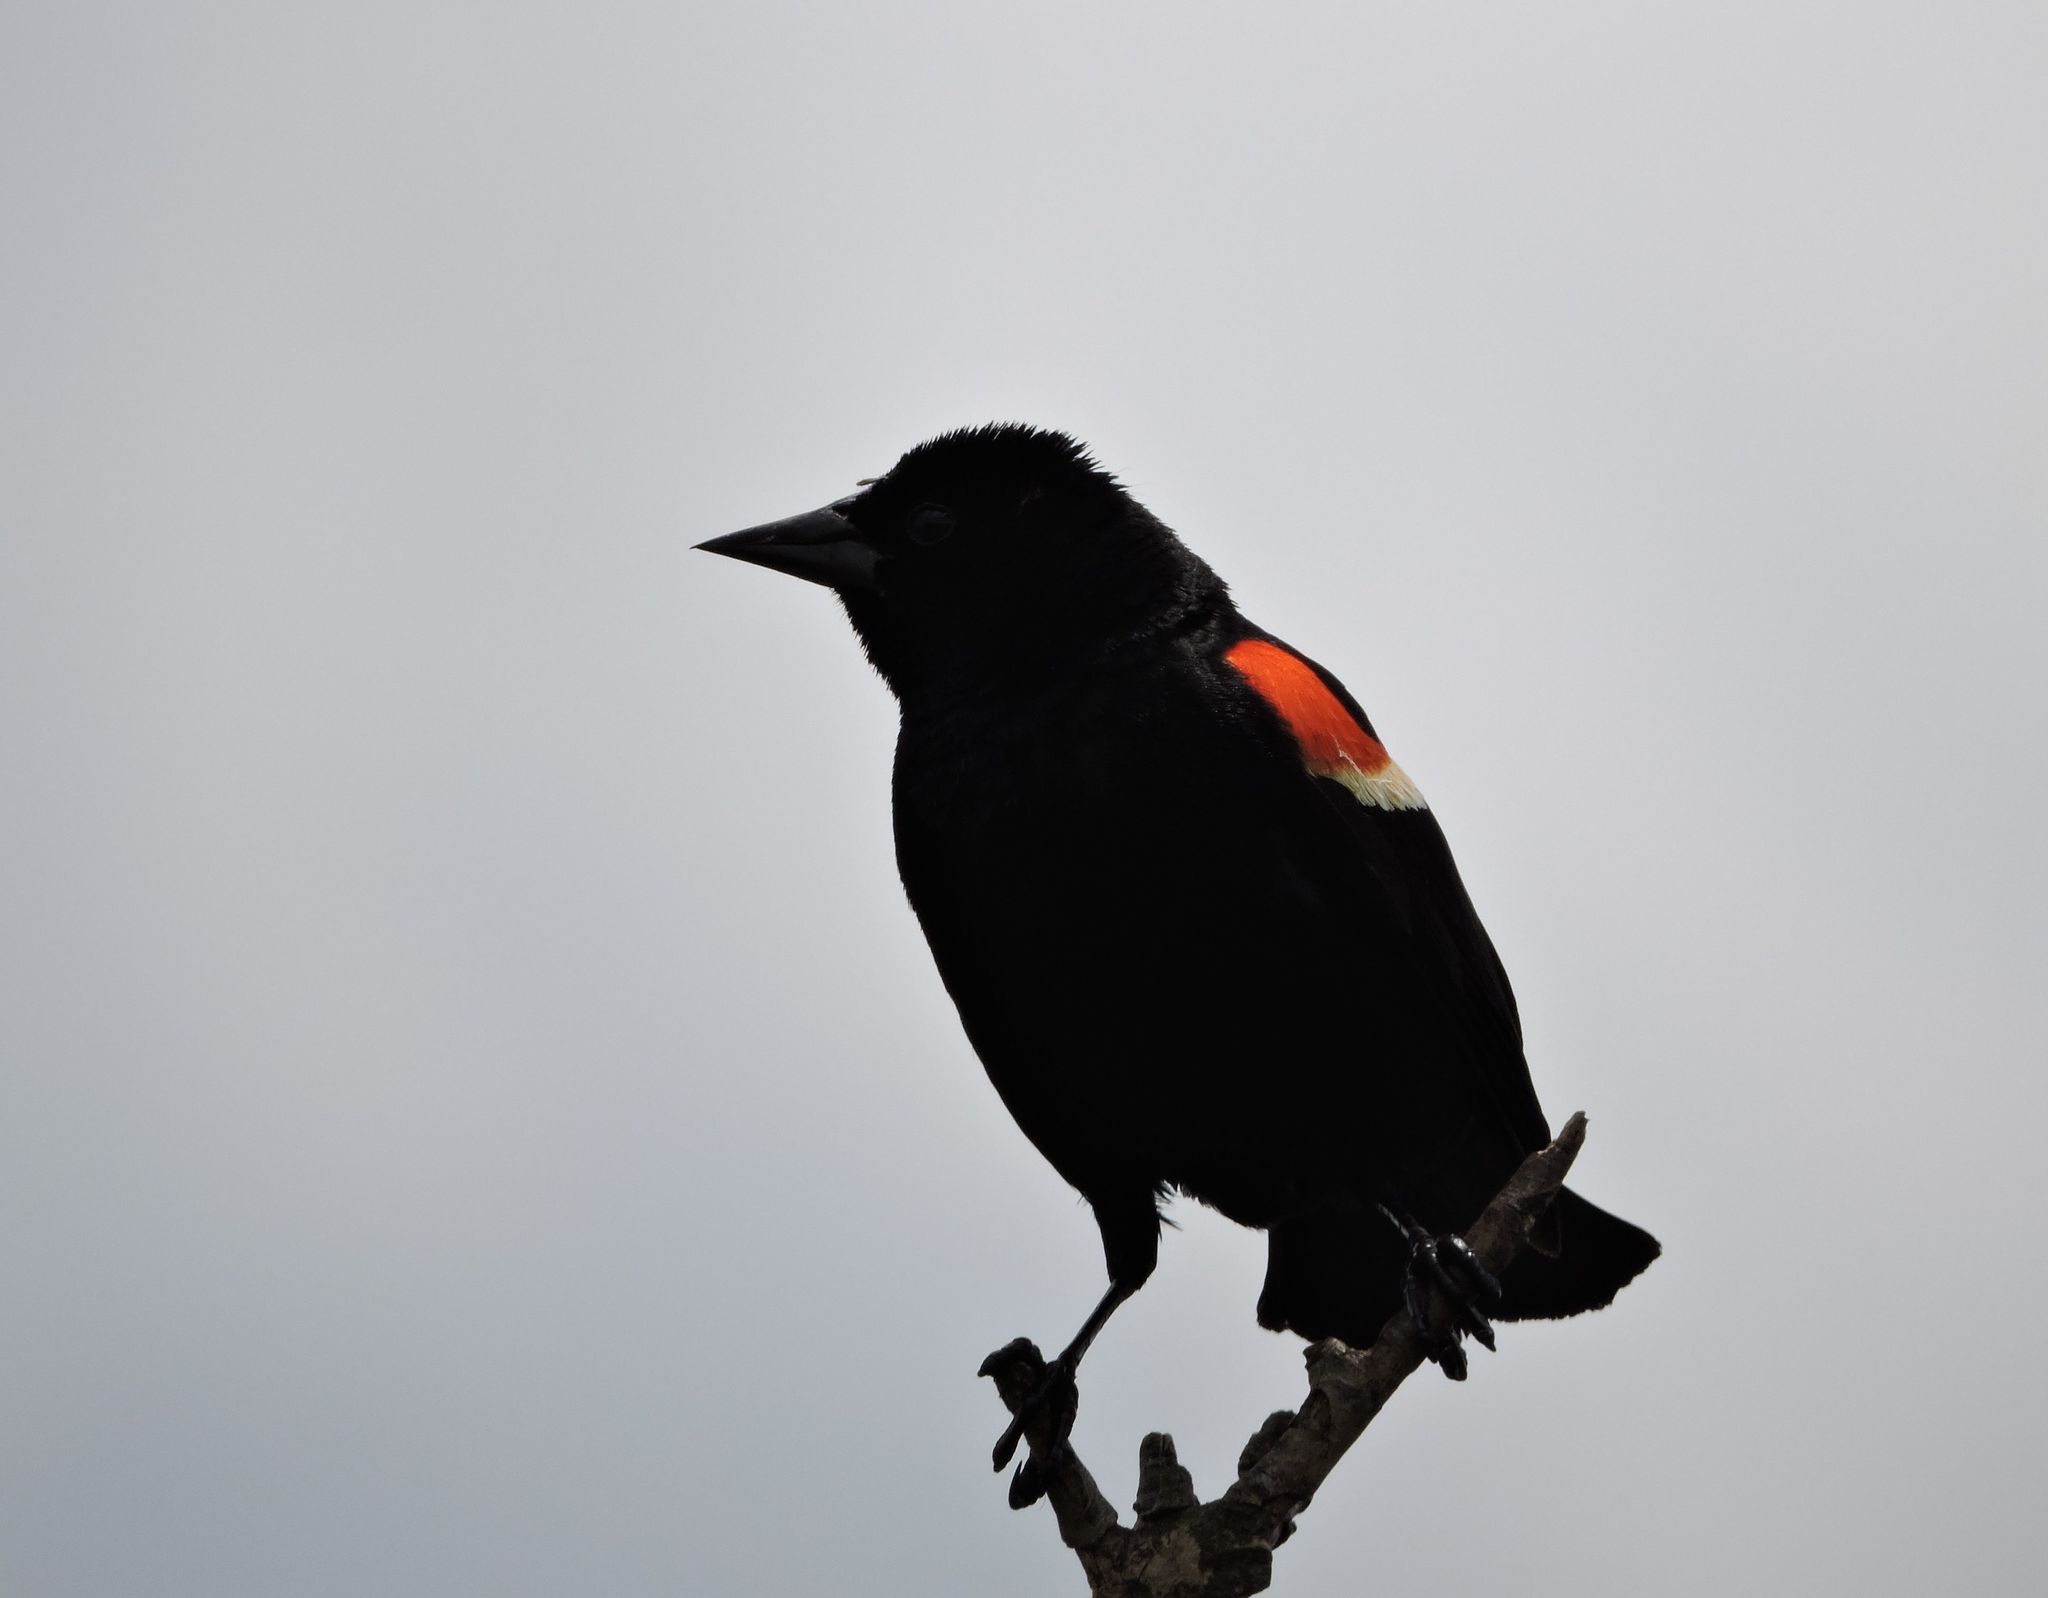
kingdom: Animalia
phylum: Chordata
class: Aves
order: Passeriformes
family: Icteridae
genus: Agelaius
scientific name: Agelaius phoeniceus
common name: Red-winged blackbird
